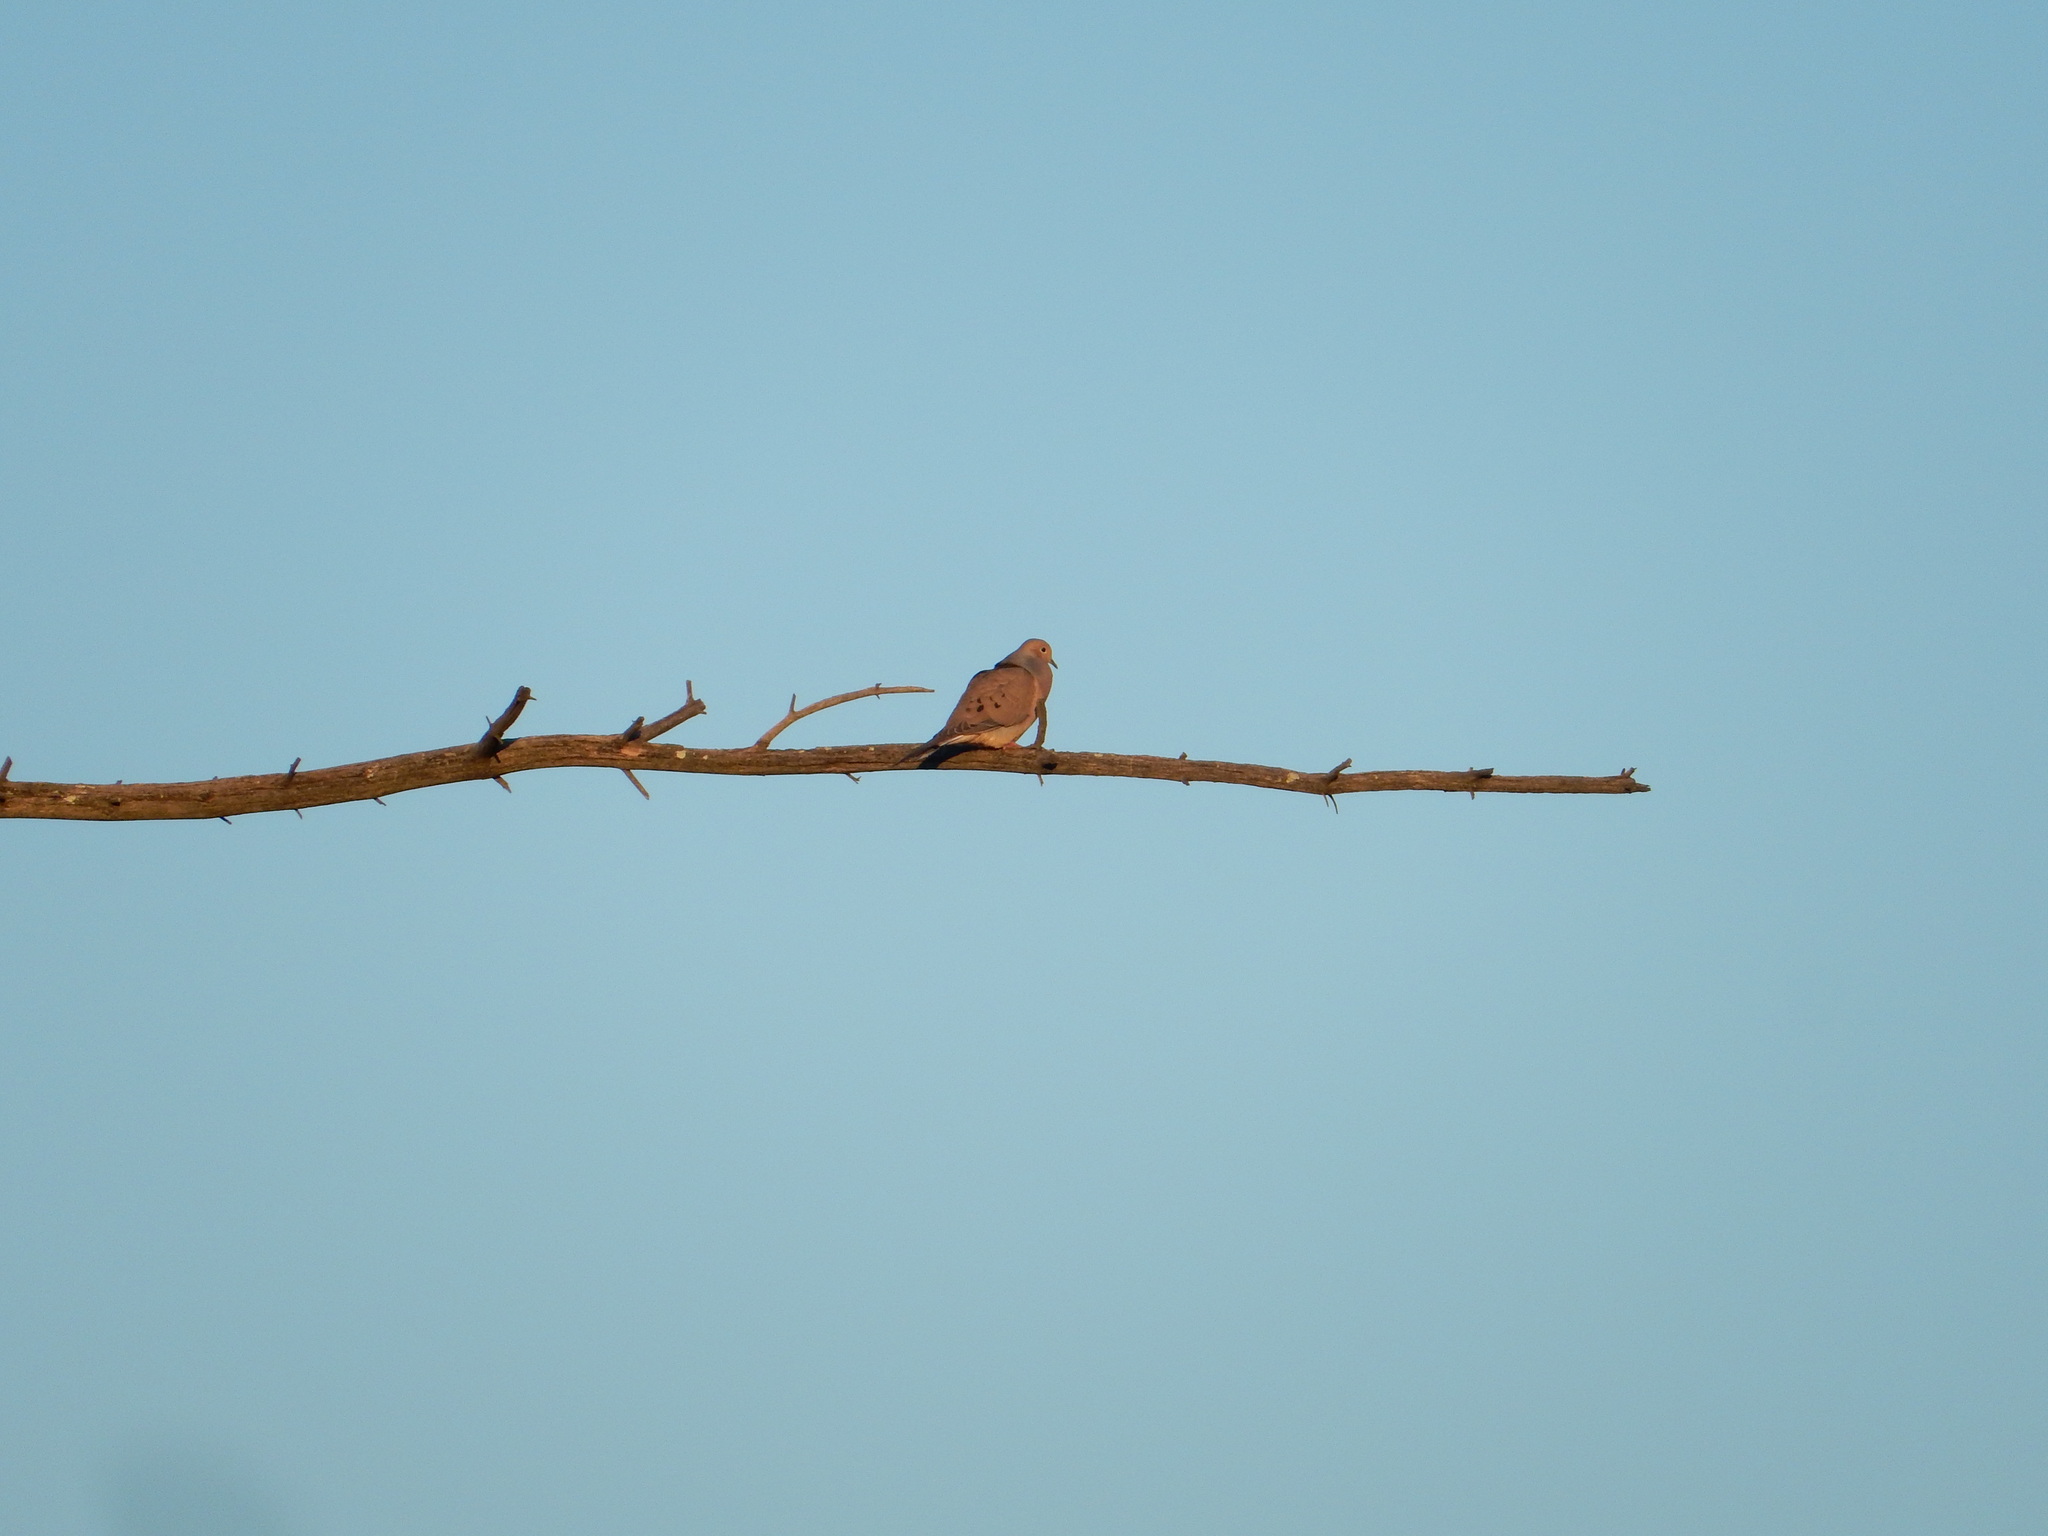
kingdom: Animalia
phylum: Chordata
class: Aves
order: Columbiformes
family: Columbidae
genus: Zenaida
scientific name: Zenaida macroura
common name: Mourning dove
